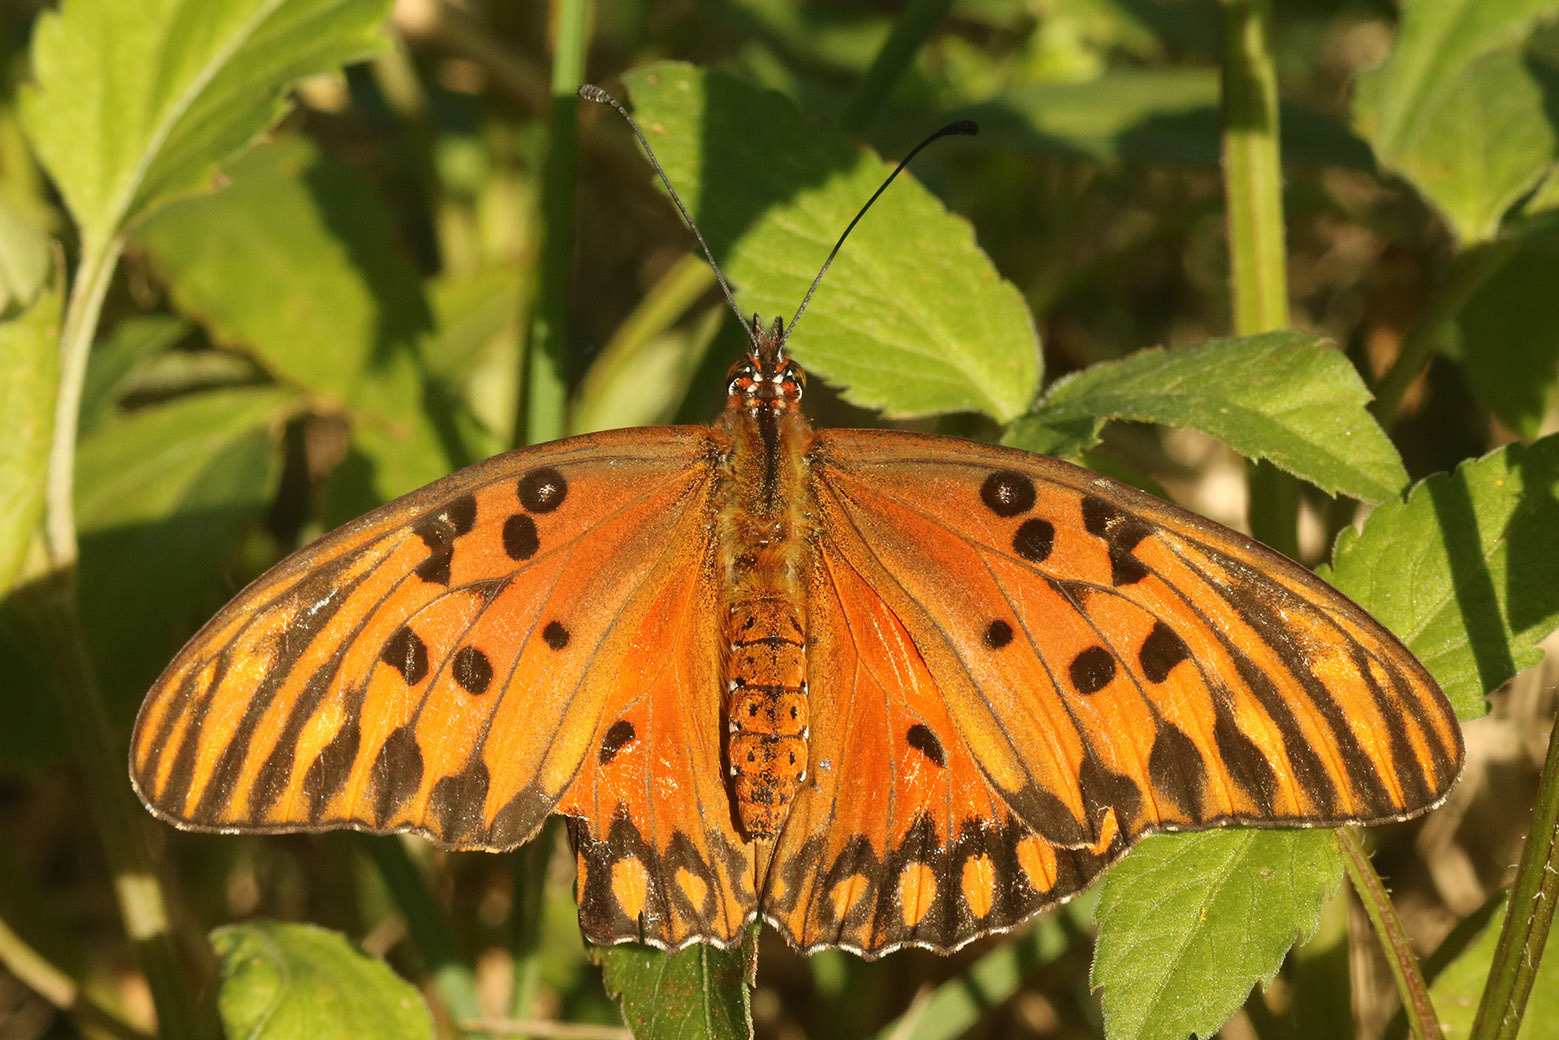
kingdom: Animalia
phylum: Arthropoda
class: Insecta
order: Lepidoptera
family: Nymphalidae
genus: Dione
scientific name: Dione vanillae
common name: Gulf fritillary
